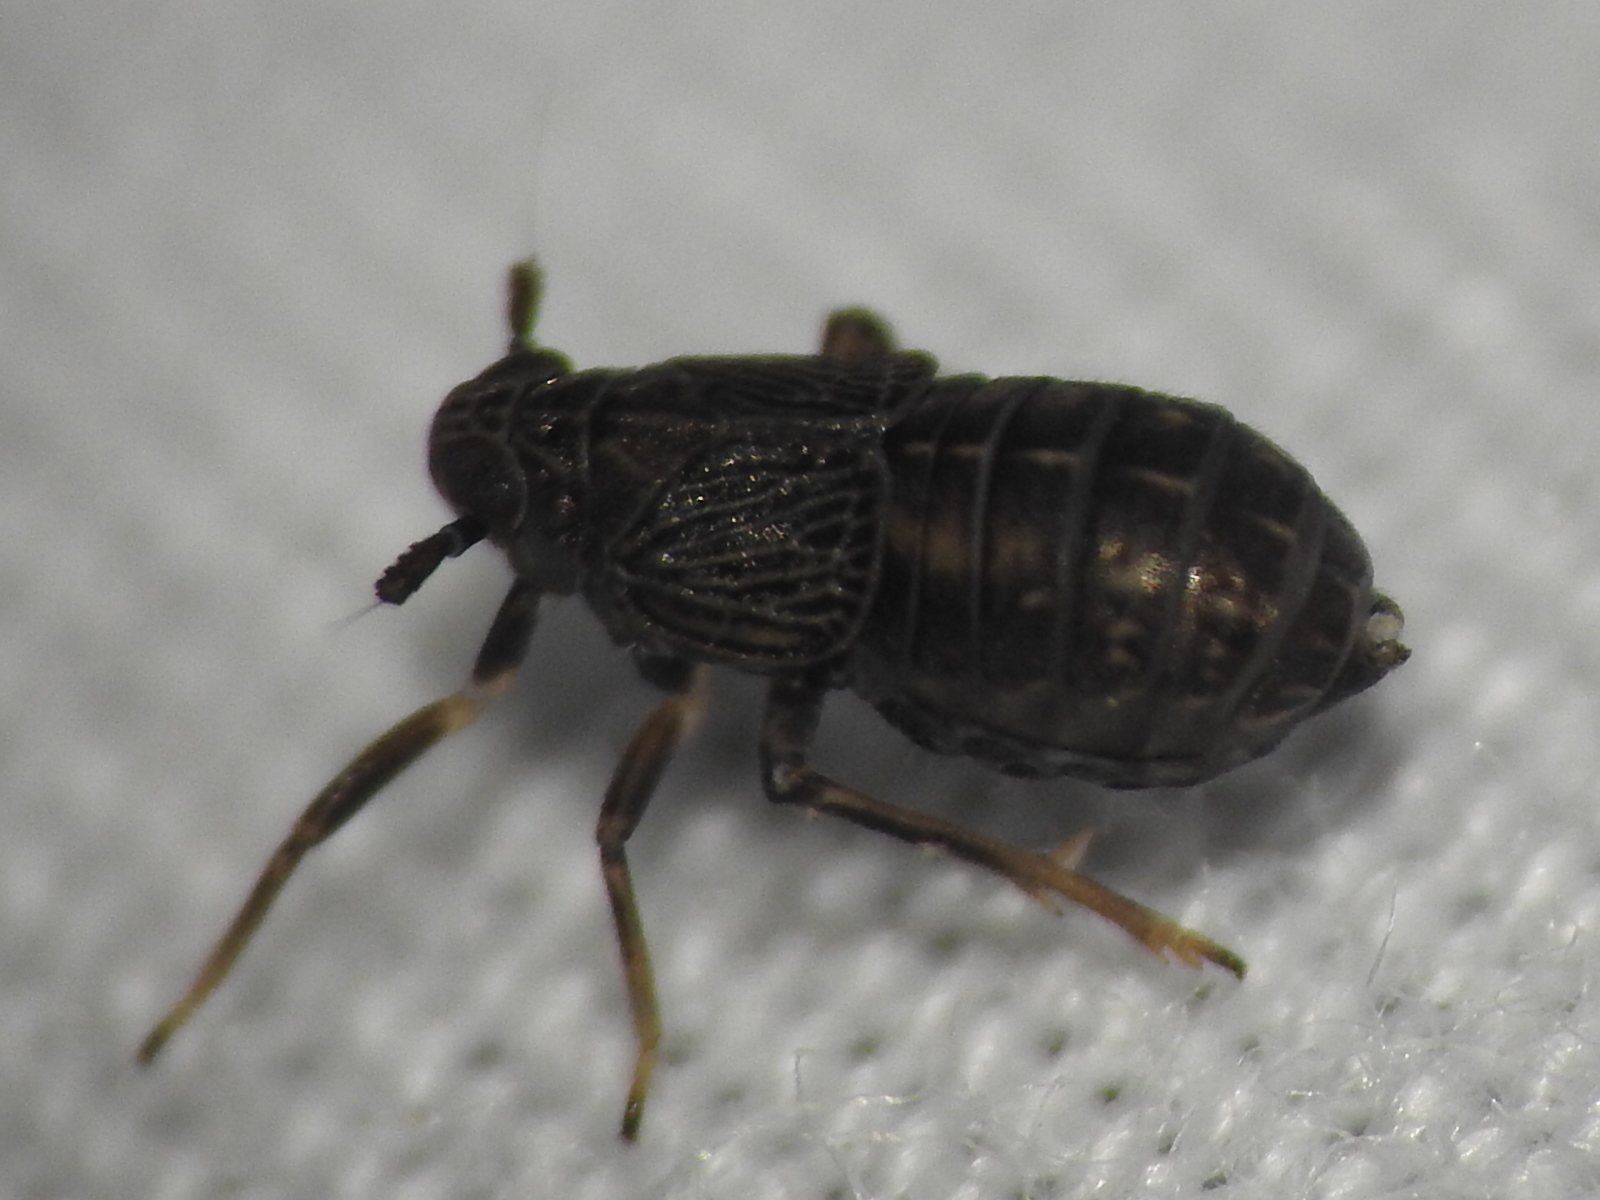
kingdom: Animalia
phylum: Arthropoda
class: Insecta
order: Hemiptera
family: Delphacidae
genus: Pissonotus
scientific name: Pissonotus brunneus
